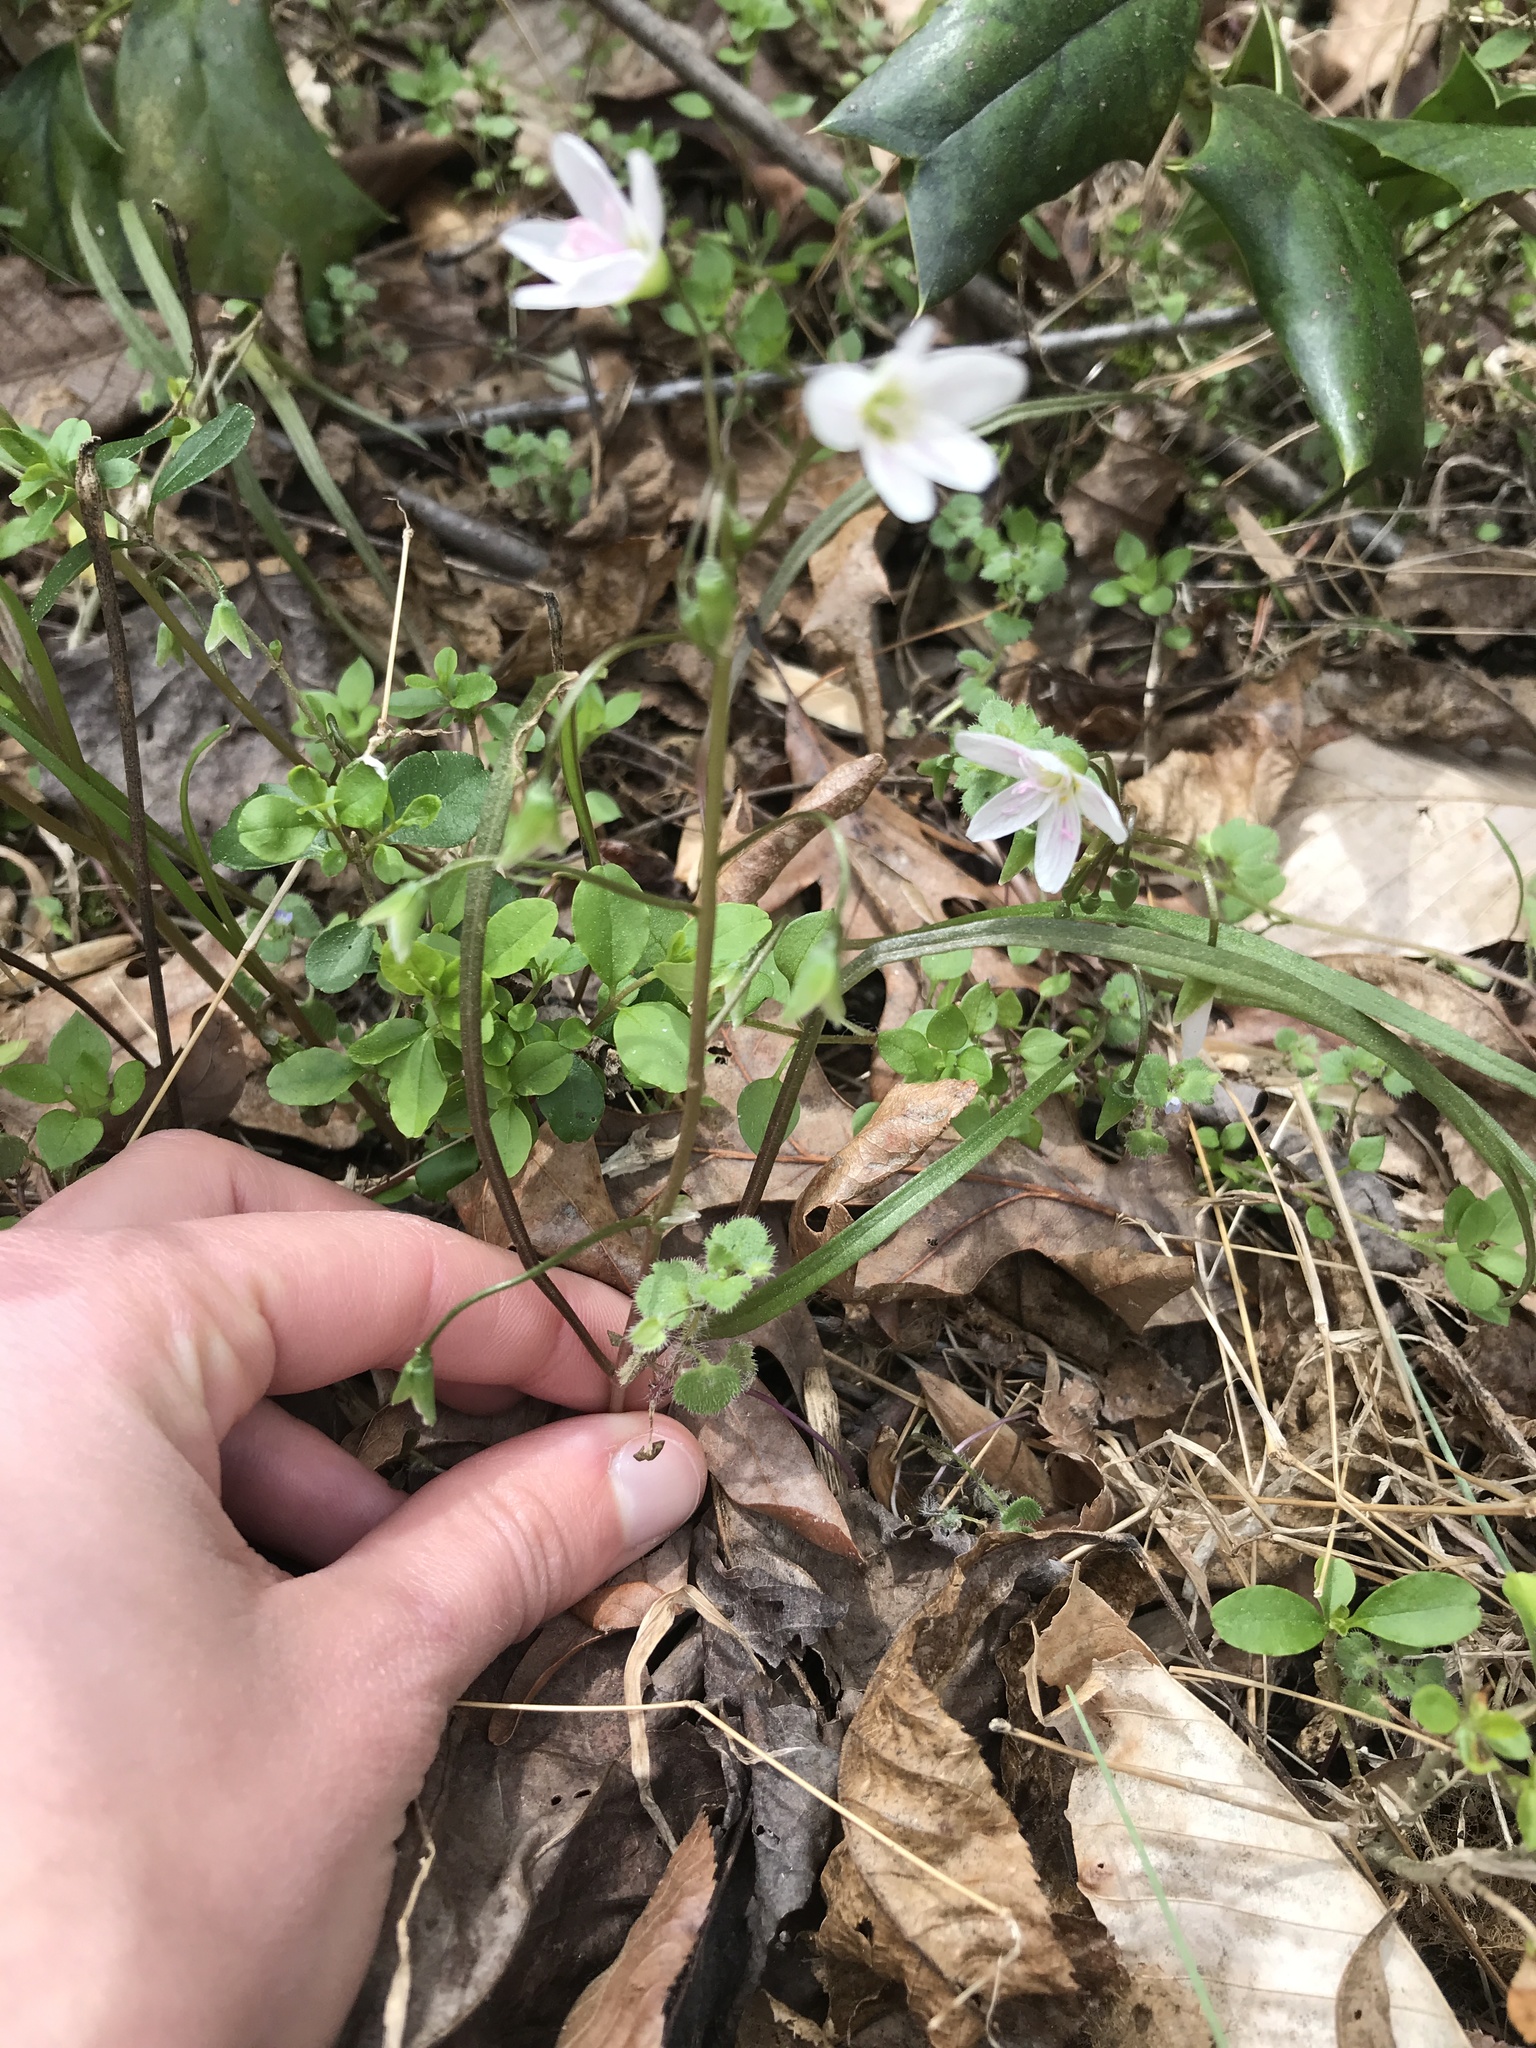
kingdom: Plantae
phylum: Tracheophyta
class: Magnoliopsida
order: Caryophyllales
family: Montiaceae
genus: Claytonia
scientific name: Claytonia virginica
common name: Virginia springbeauty
